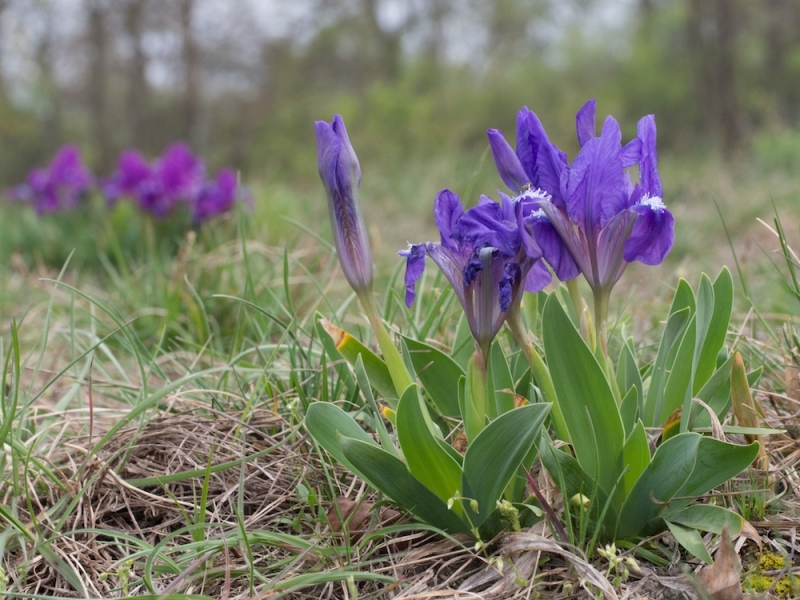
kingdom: Plantae
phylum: Tracheophyta
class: Liliopsida
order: Asparagales
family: Iridaceae
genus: Iris
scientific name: Iris pumila
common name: Dwarf iris
